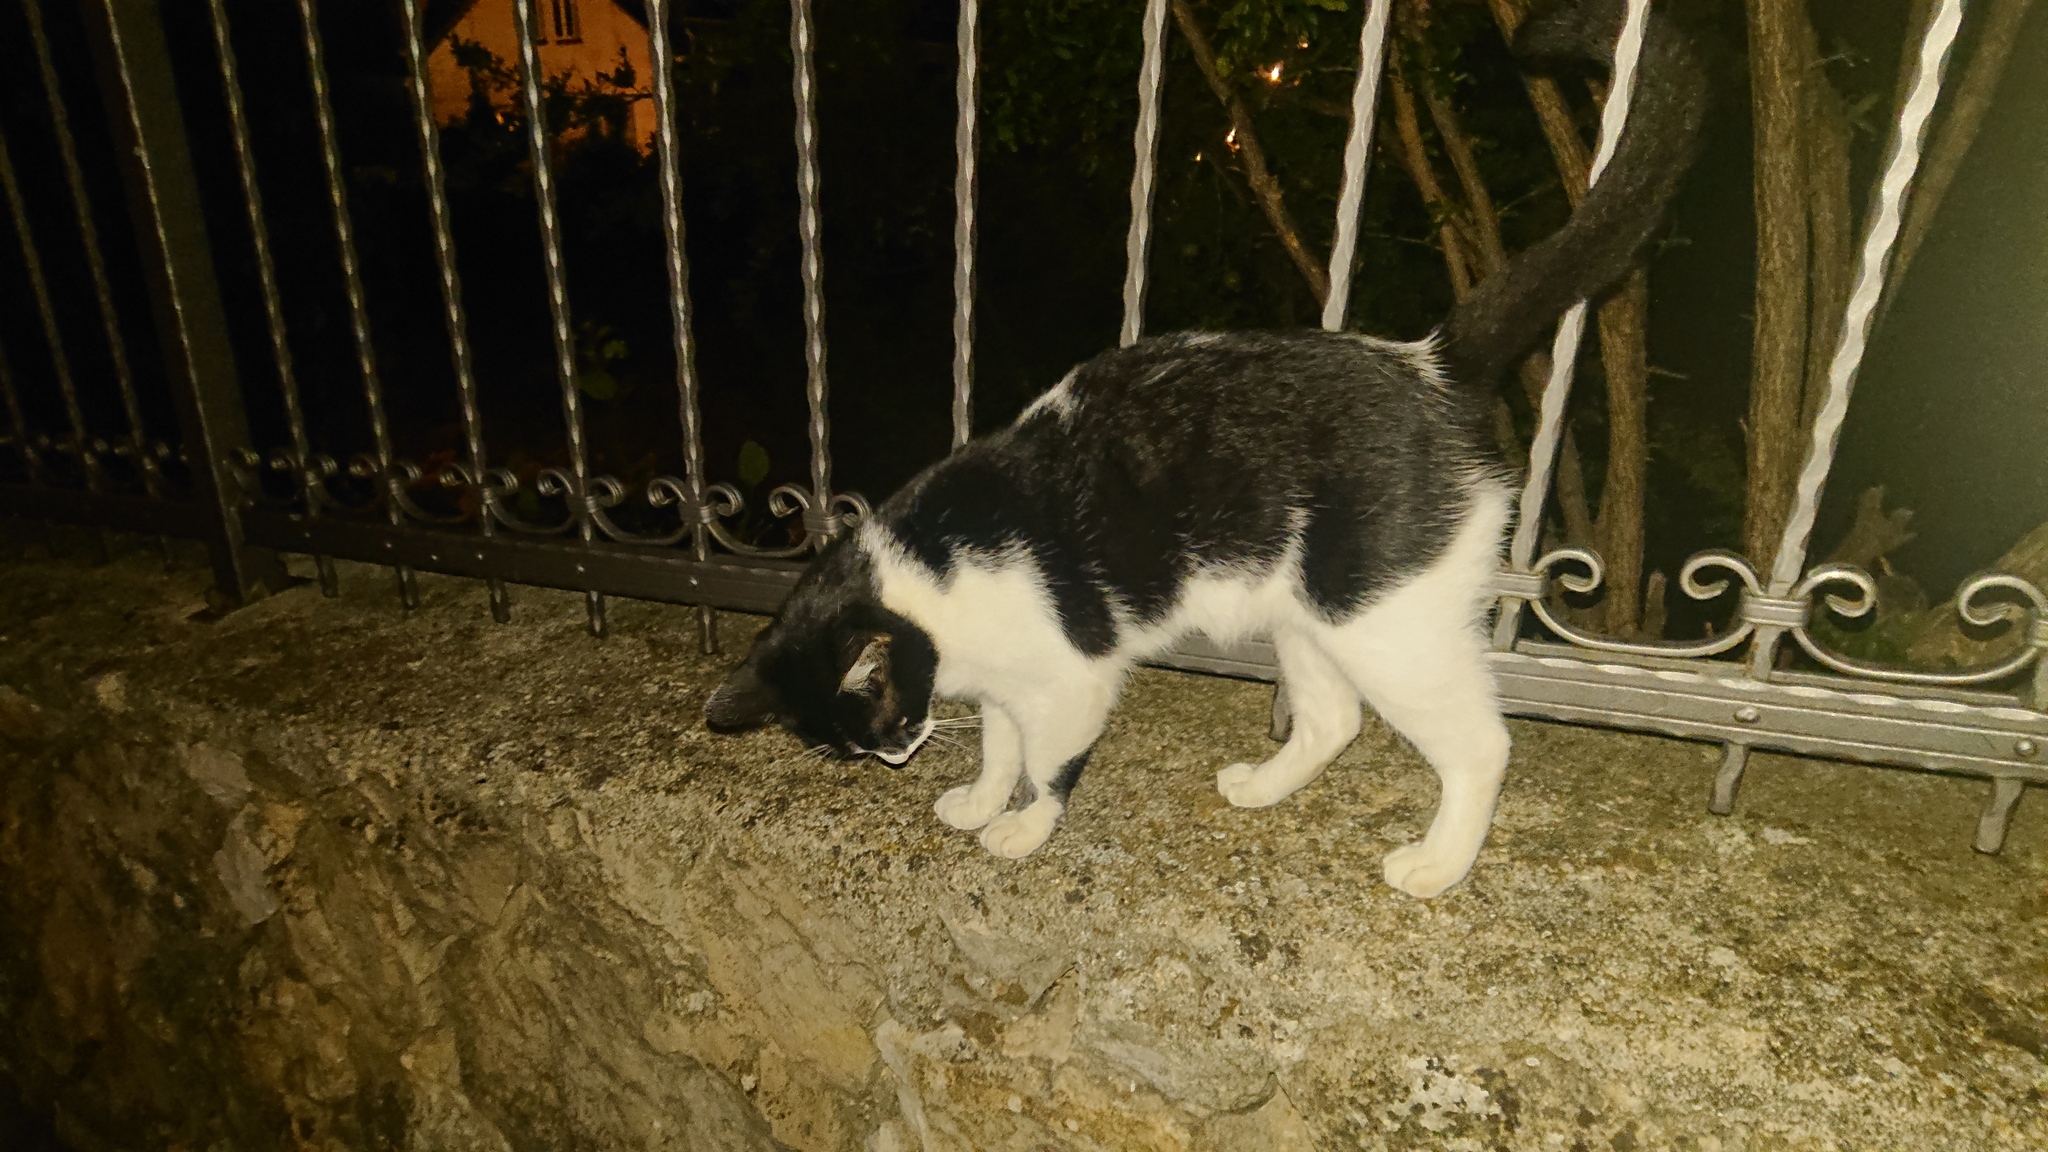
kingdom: Animalia
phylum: Chordata
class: Mammalia
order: Carnivora
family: Felidae
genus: Felis
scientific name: Felis catus
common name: Domestic cat
